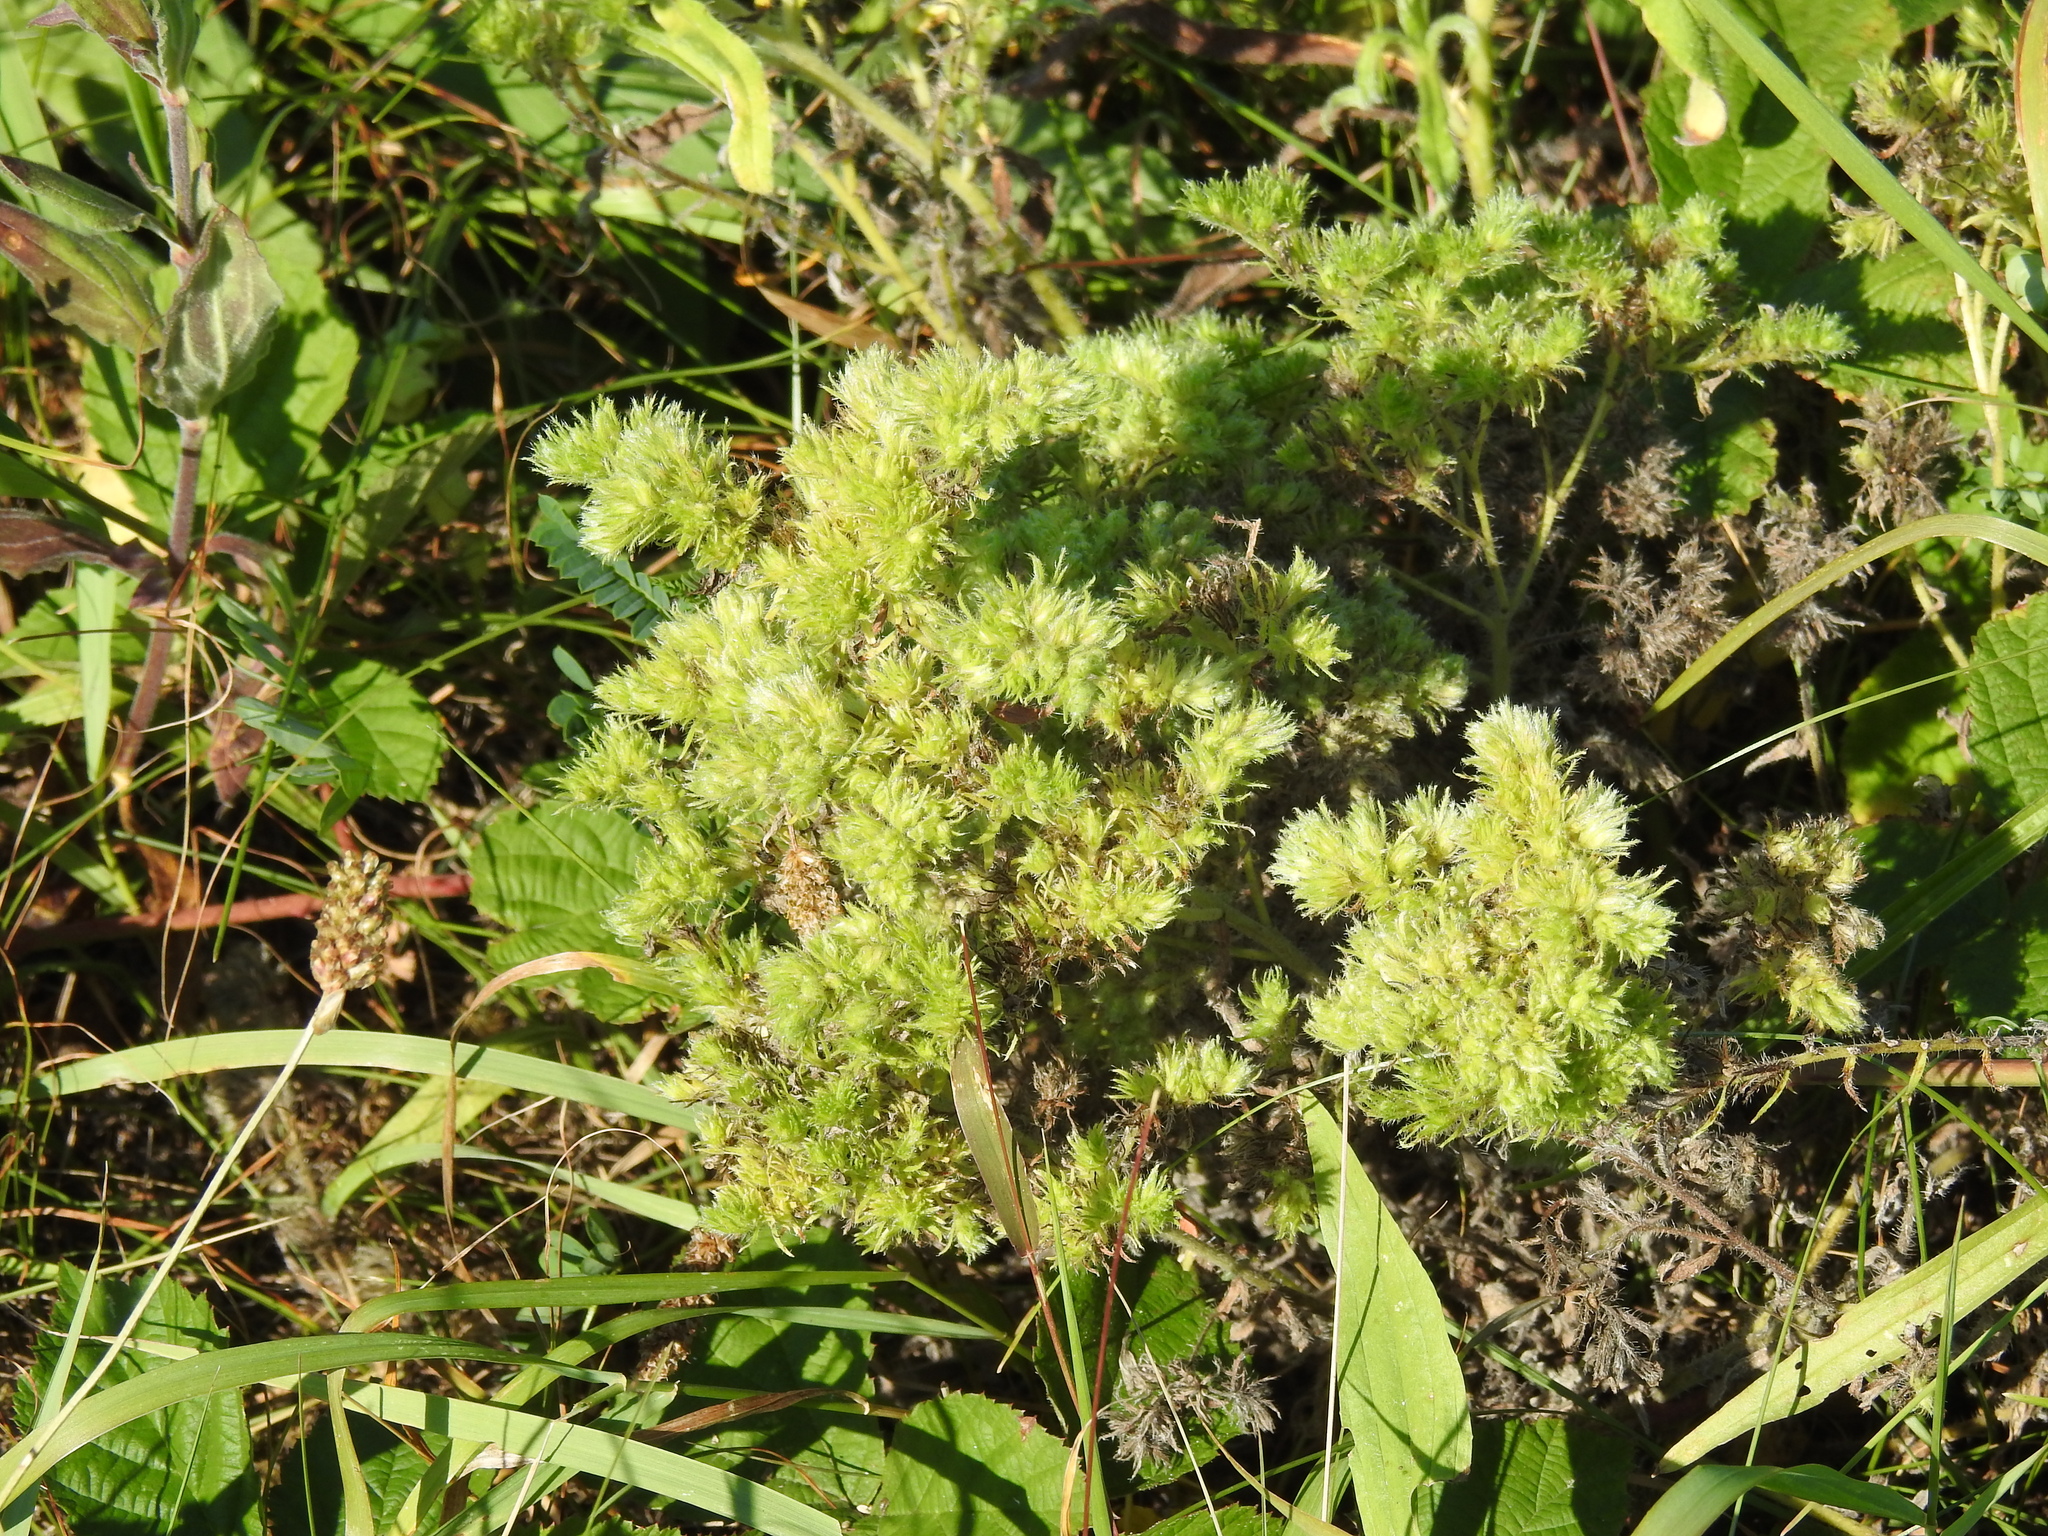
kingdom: Animalia
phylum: Arthropoda
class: Arachnida
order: Trombidiformes
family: Eriophyidae
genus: Aceria
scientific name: Aceria echii
